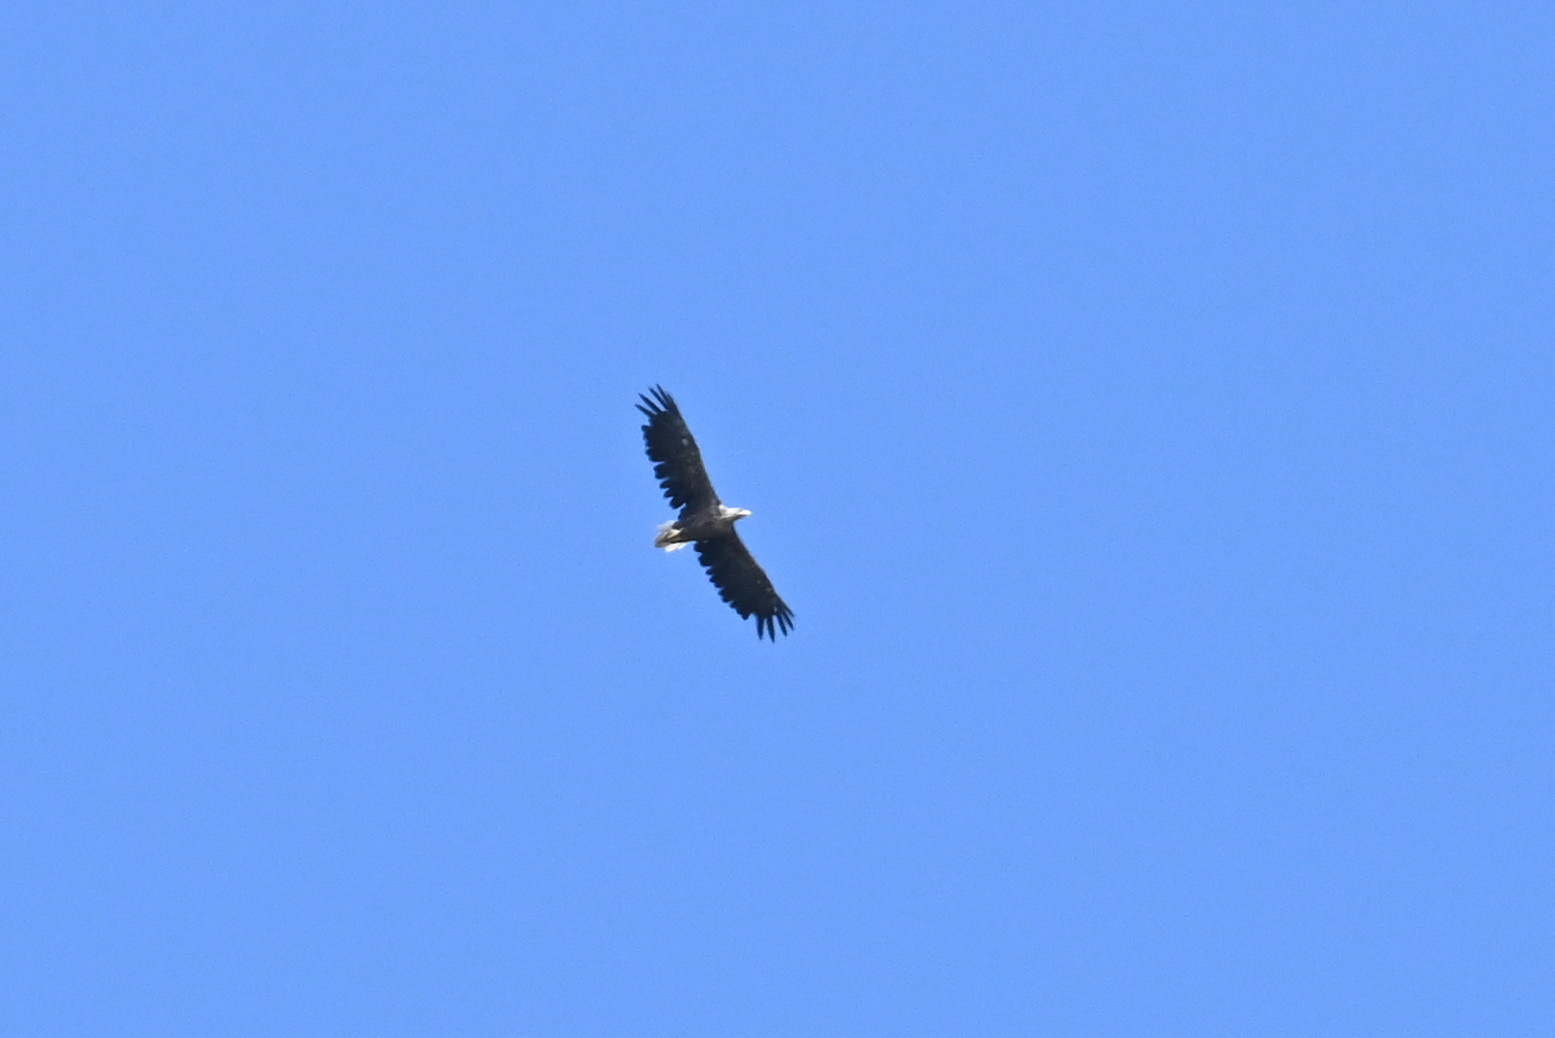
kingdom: Animalia
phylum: Chordata
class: Aves
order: Accipitriformes
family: Accipitridae
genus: Haliaeetus
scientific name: Haliaeetus albicilla
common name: White-tailed eagle
